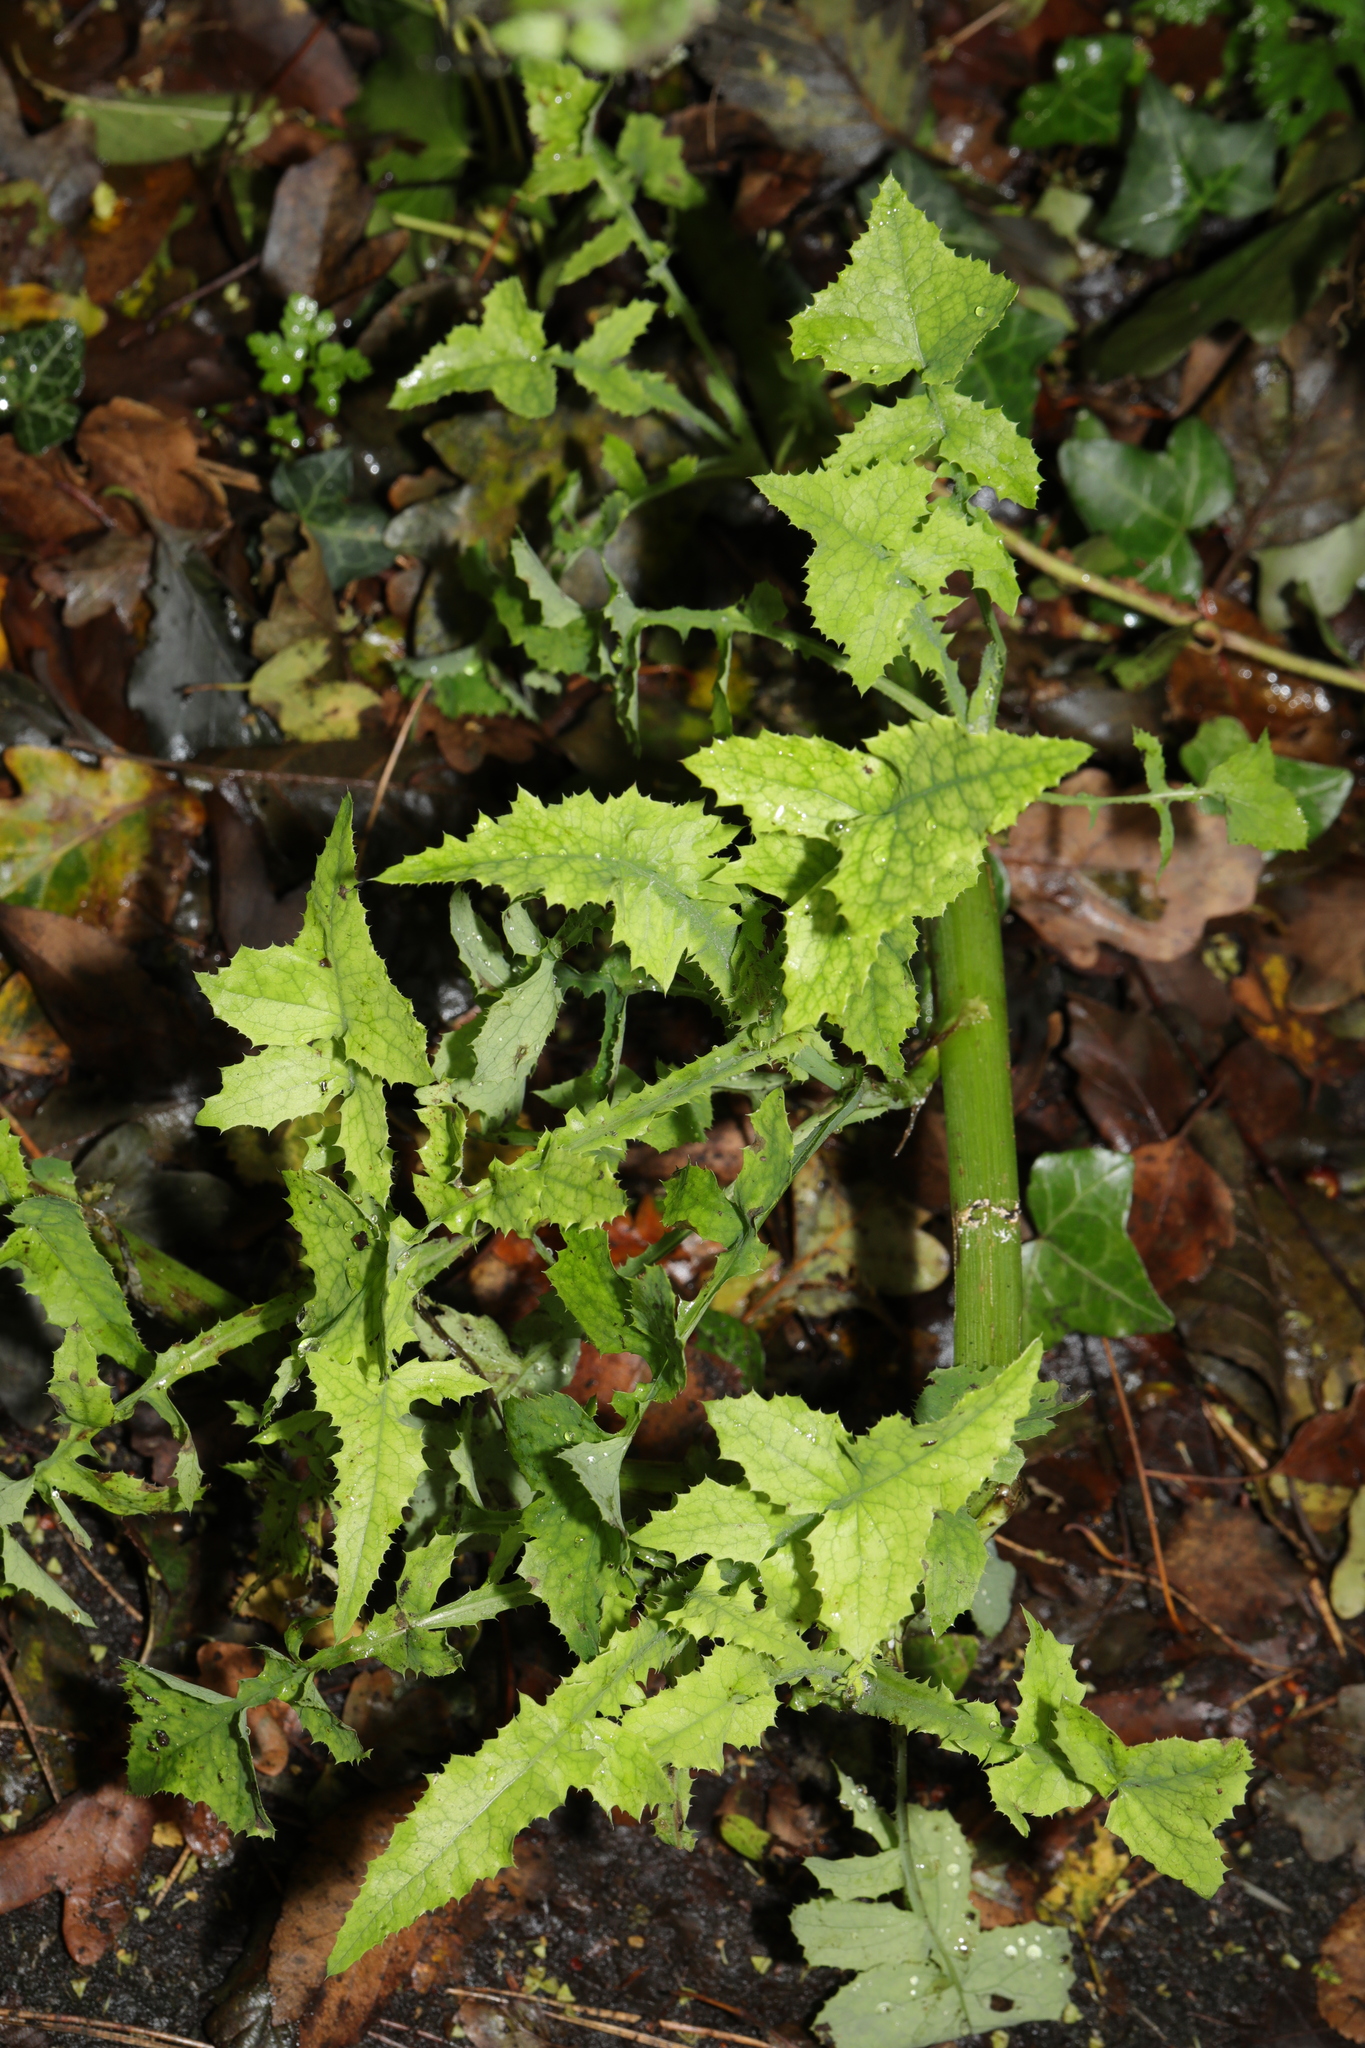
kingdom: Plantae
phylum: Tracheophyta
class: Magnoliopsida
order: Asterales
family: Asteraceae
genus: Sonchus
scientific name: Sonchus oleraceus
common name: Common sowthistle
